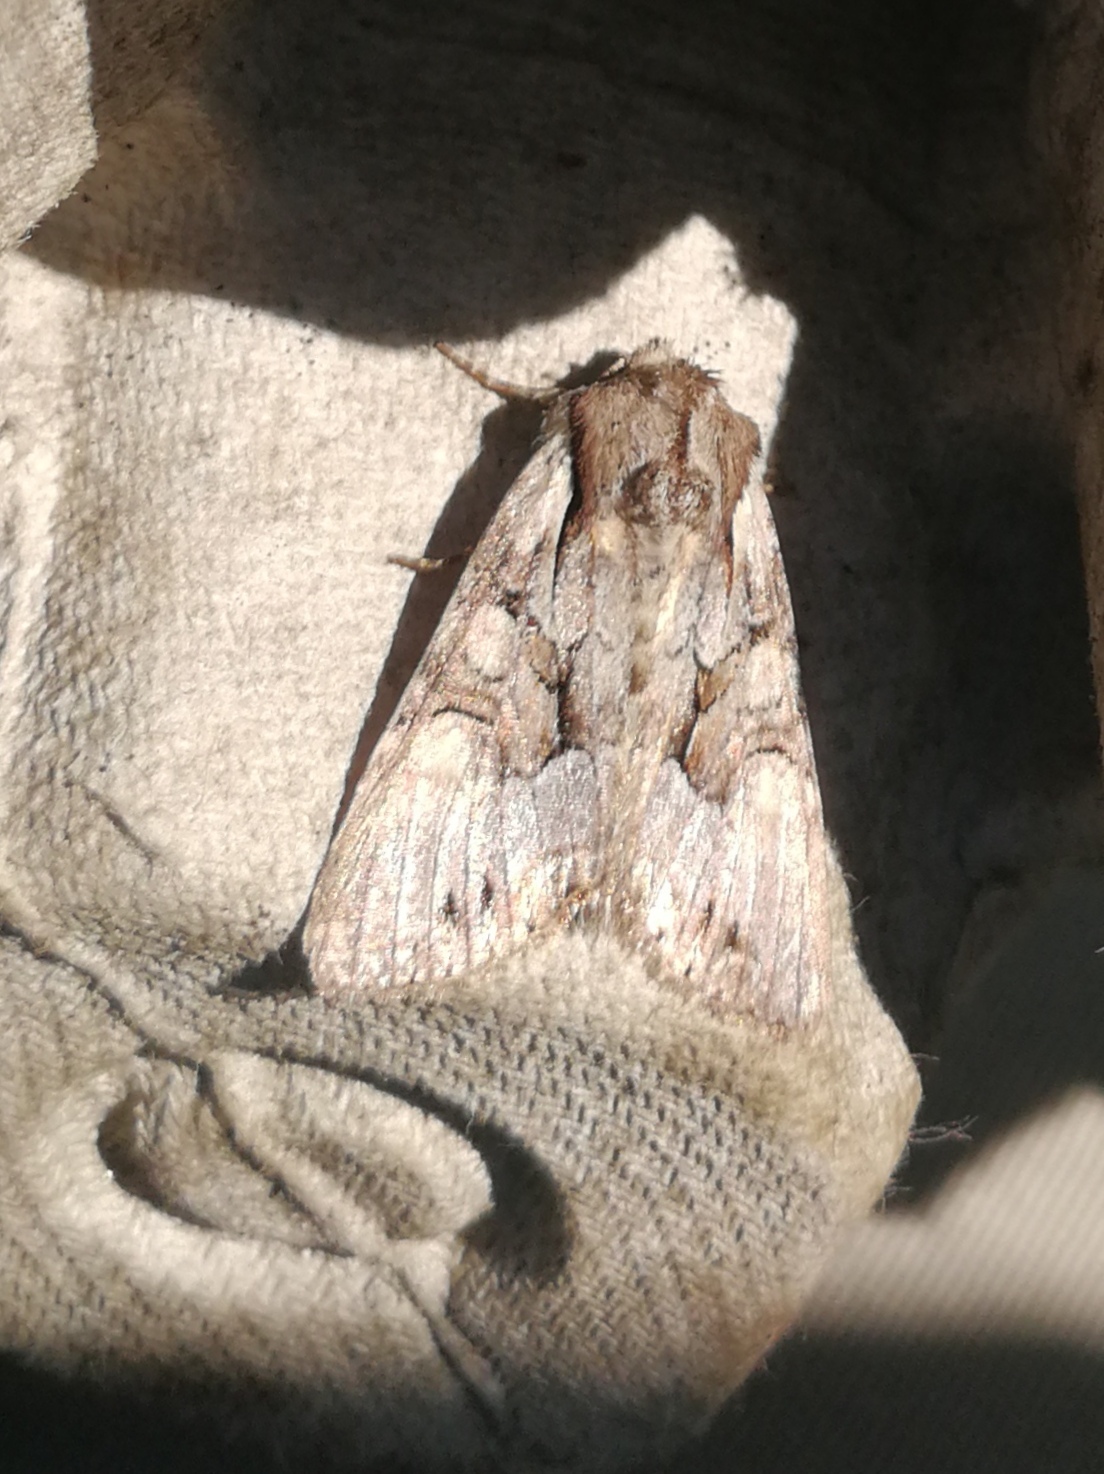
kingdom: Animalia
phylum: Arthropoda
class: Insecta
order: Lepidoptera
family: Noctuidae
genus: Lacanobia
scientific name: Lacanobia w-latinum
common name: Light brocade
